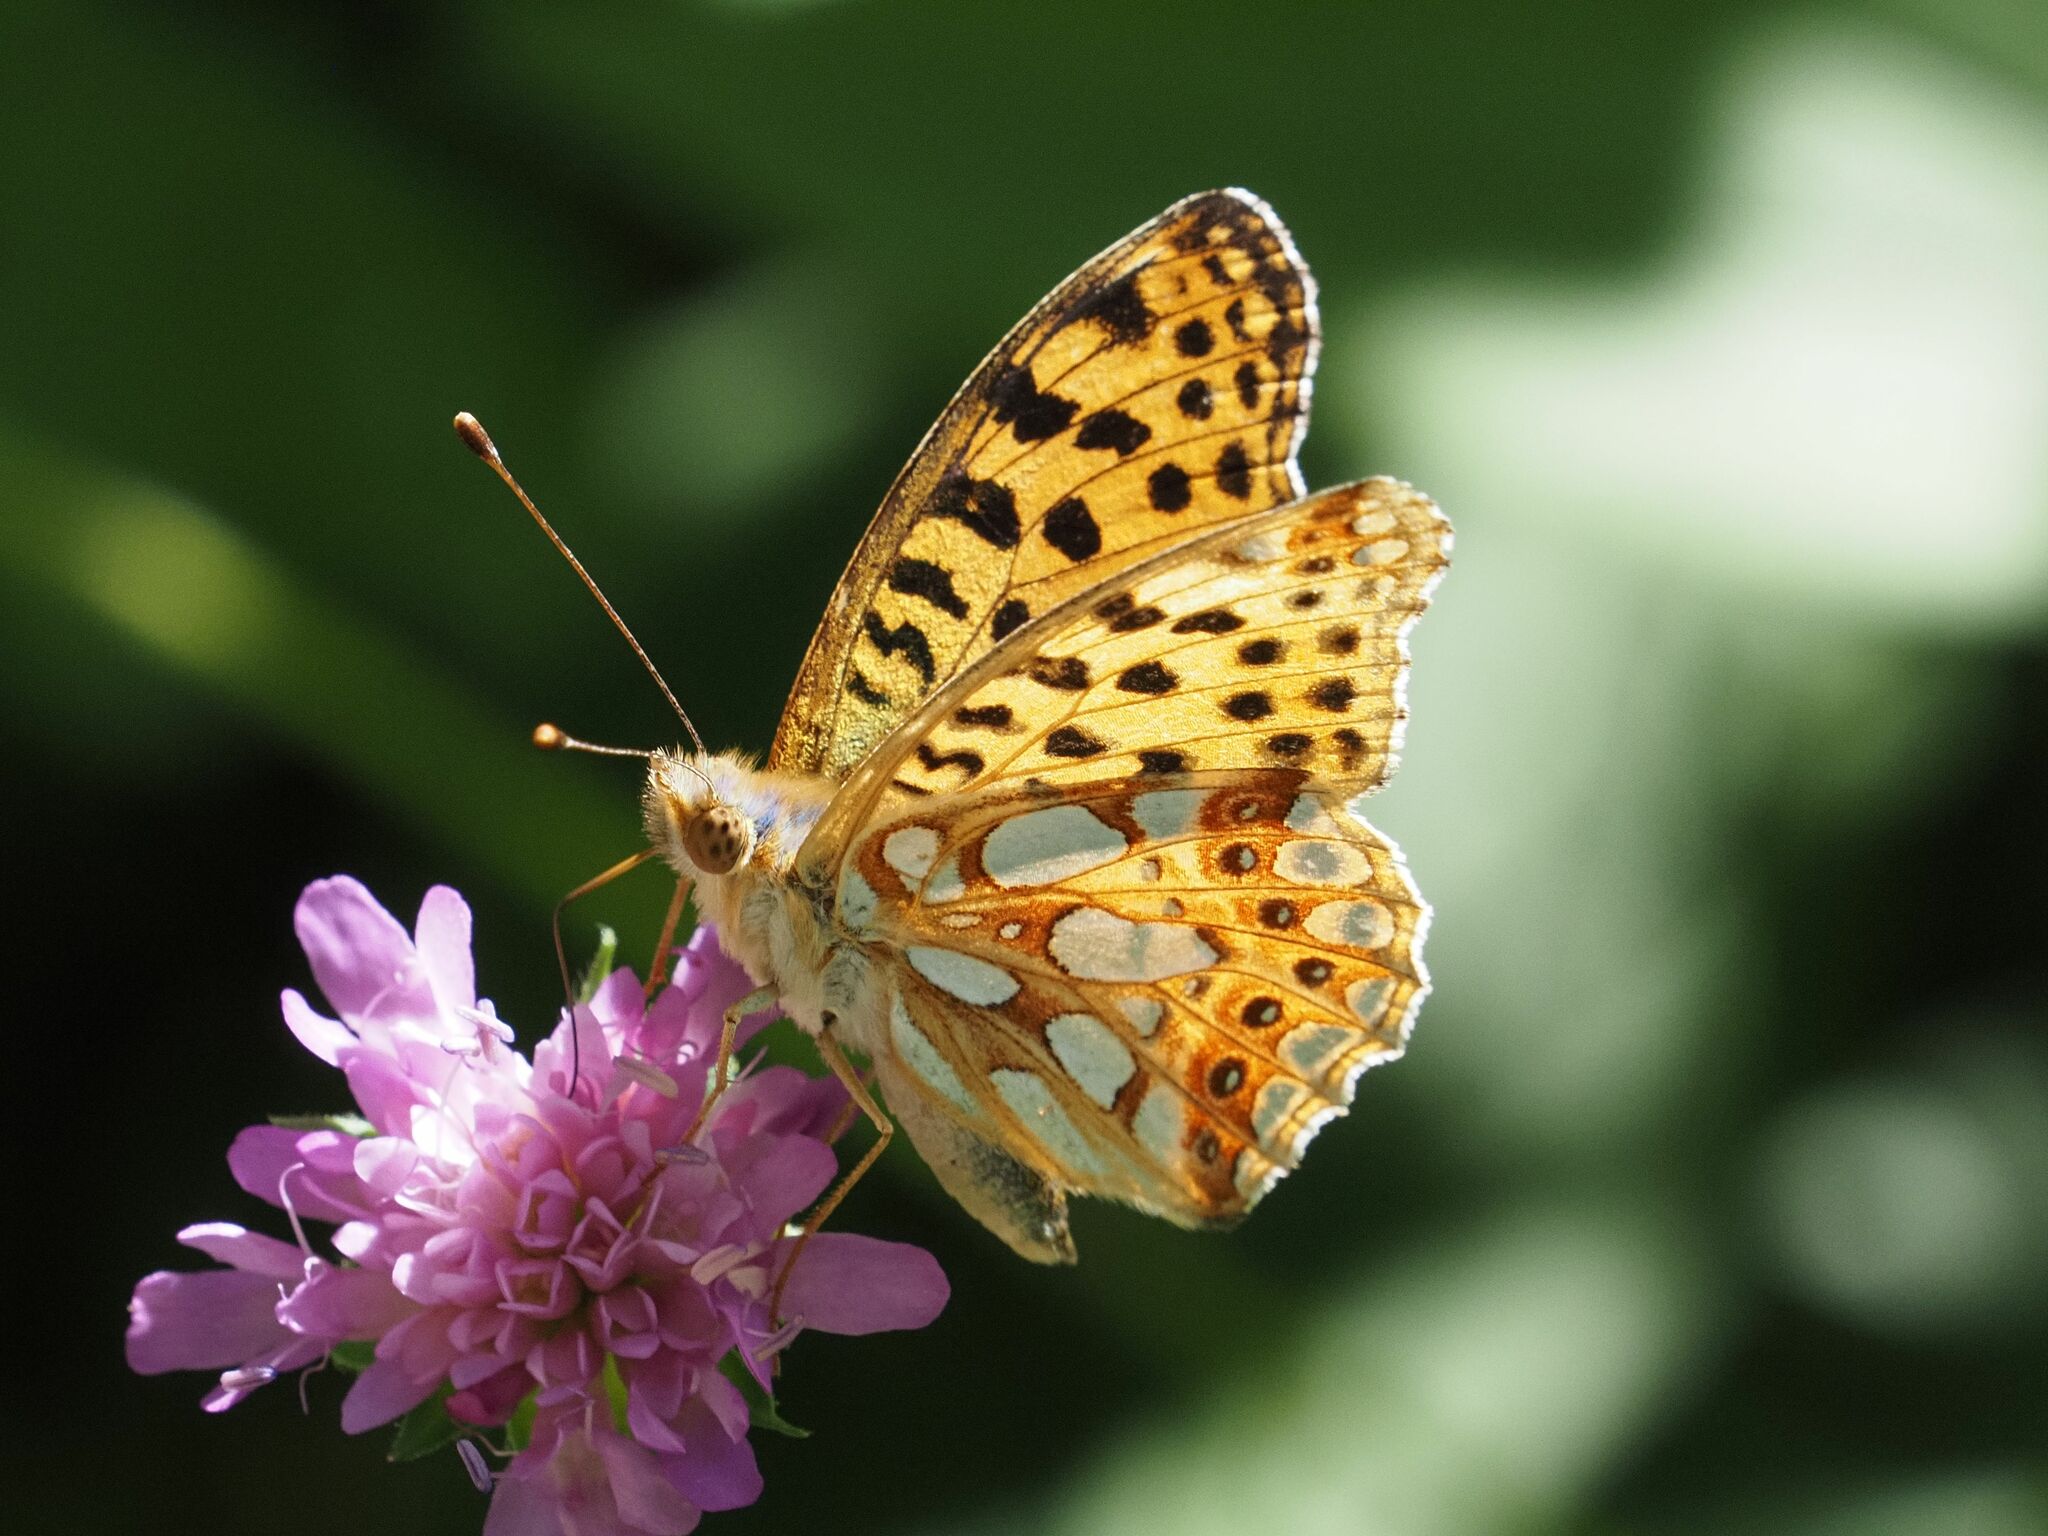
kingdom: Animalia
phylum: Arthropoda
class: Insecta
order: Lepidoptera
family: Nymphalidae
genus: Issoria
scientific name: Issoria lathonia
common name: Queen of spain fritillary
